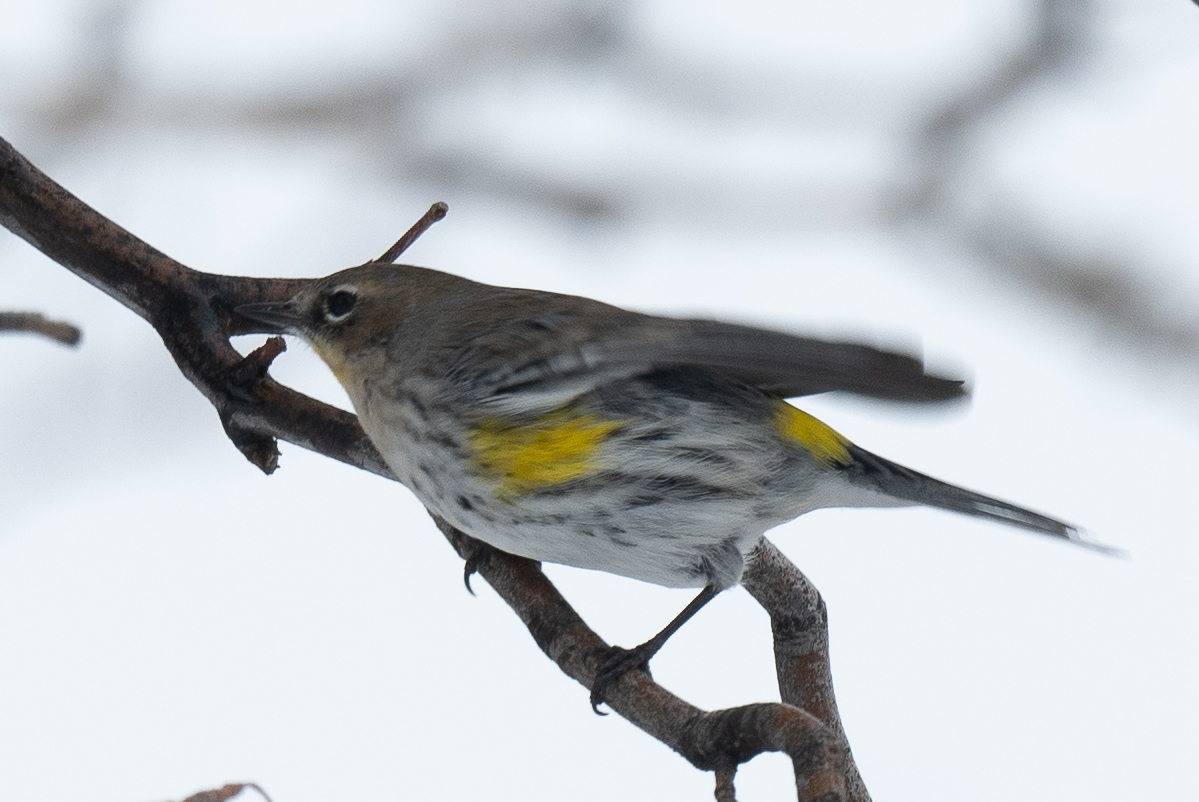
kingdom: Animalia
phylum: Chordata
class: Aves
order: Passeriformes
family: Parulidae
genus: Setophaga
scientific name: Setophaga auduboni
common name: Audubon's warbler
